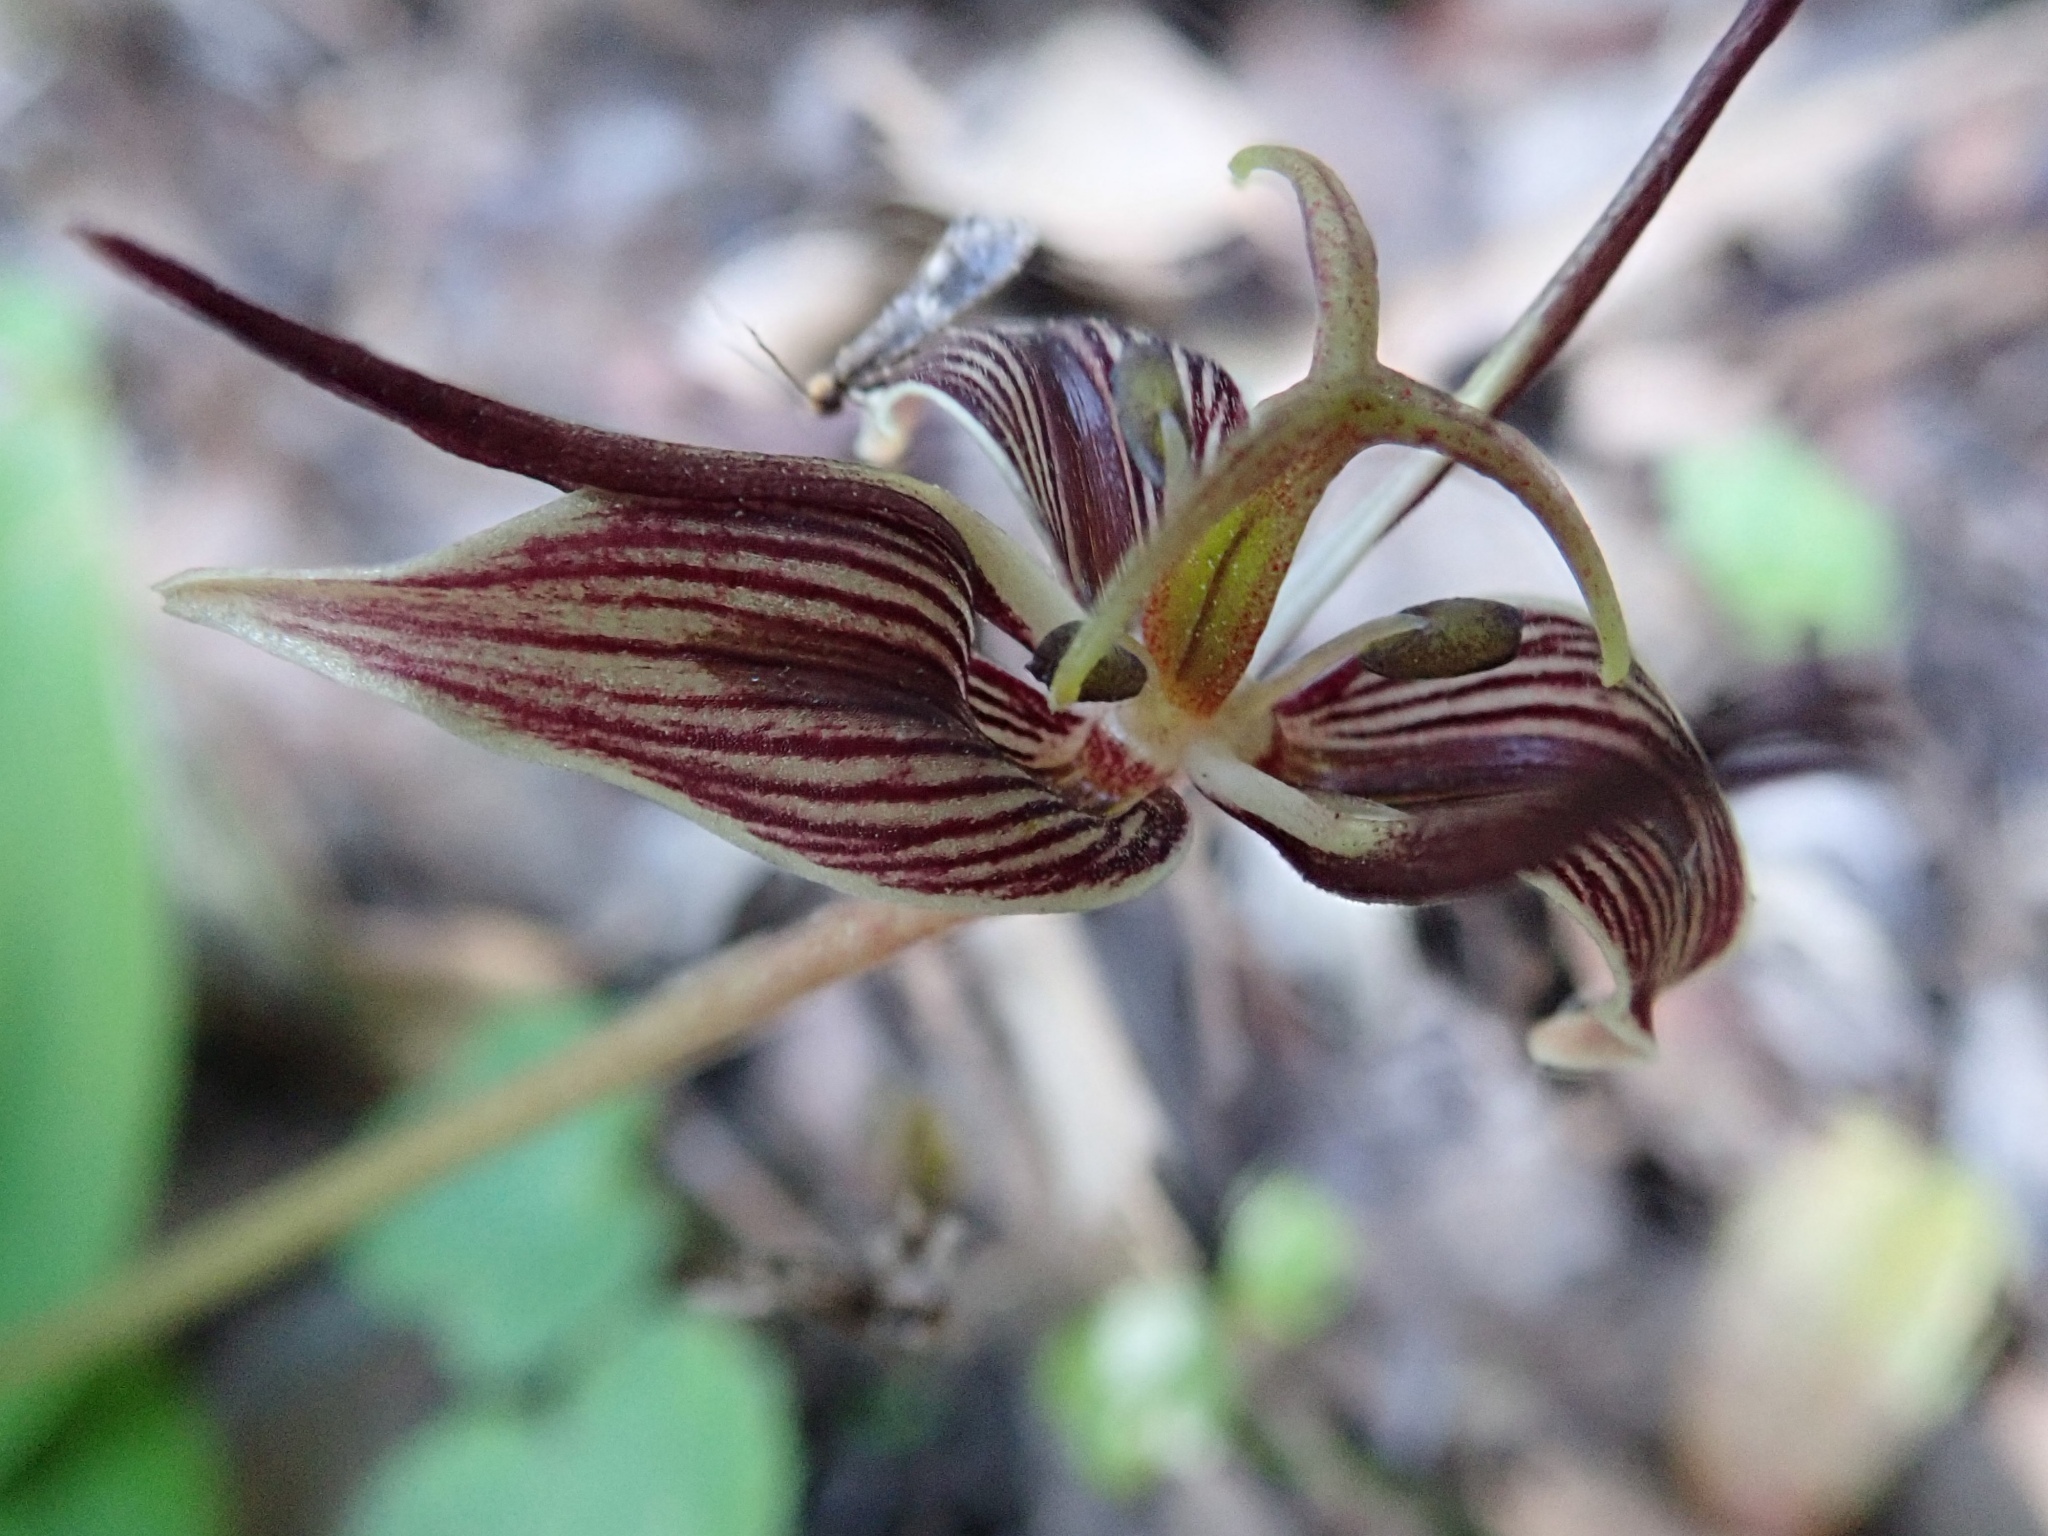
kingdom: Plantae
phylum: Tracheophyta
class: Liliopsida
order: Liliales
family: Liliaceae
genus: Scoliopus
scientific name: Scoliopus bigelovii
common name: Foetid adder's-tongue
